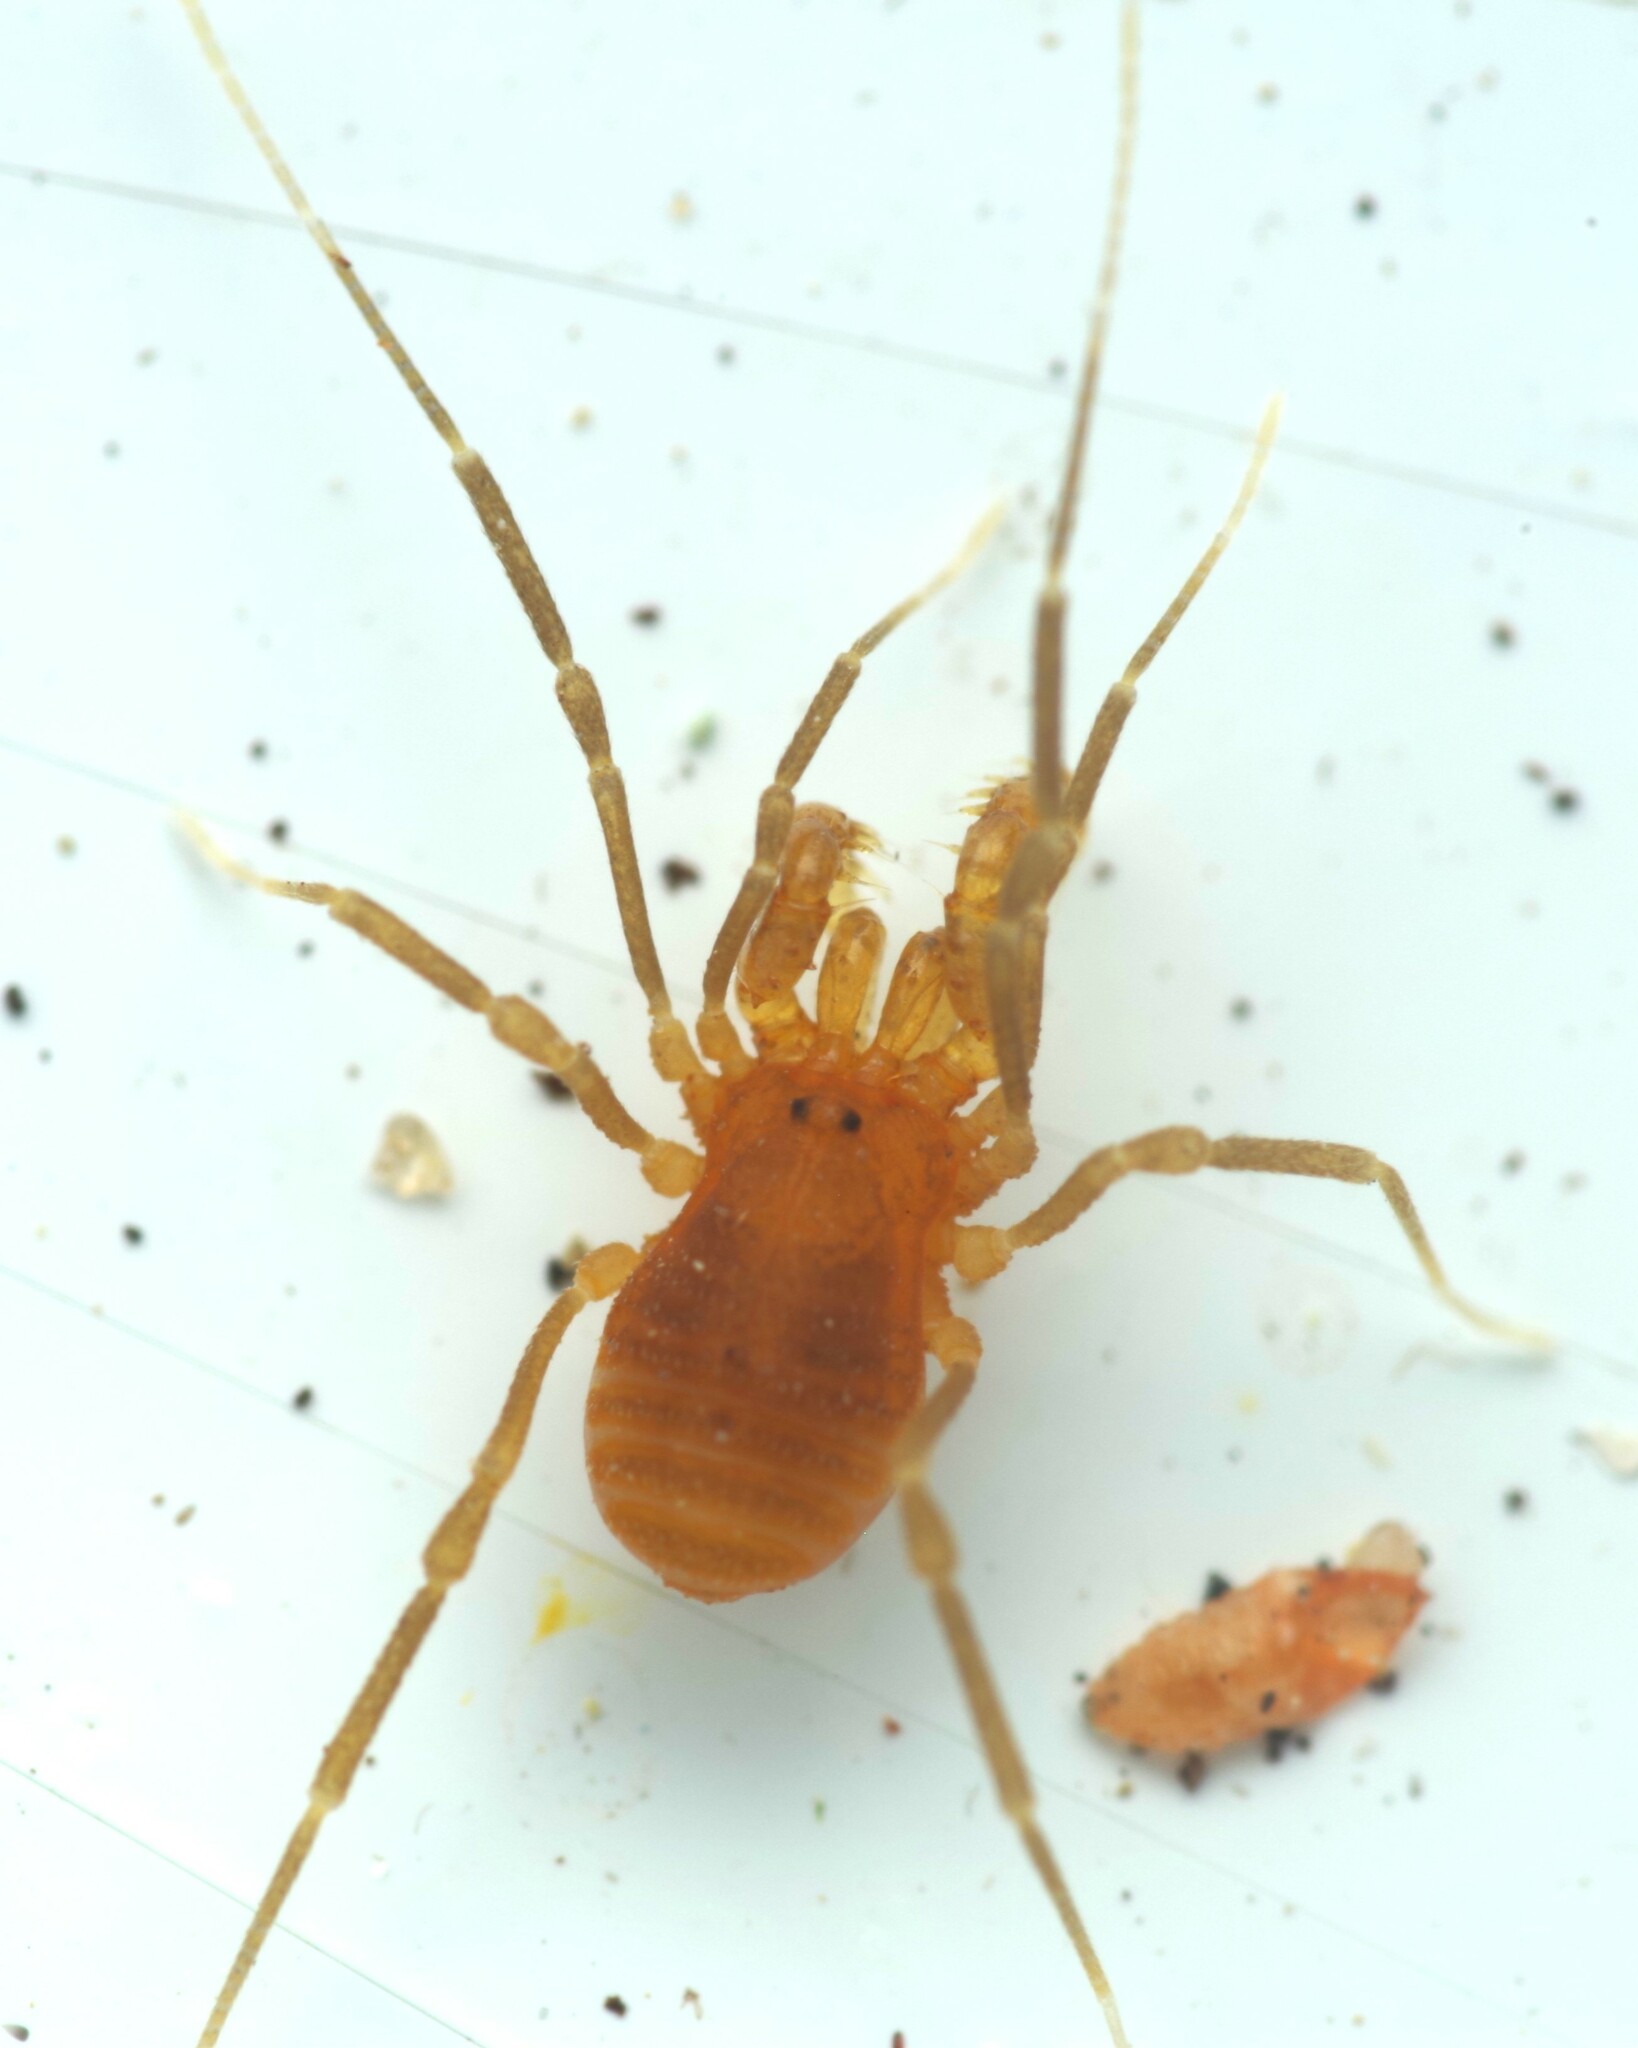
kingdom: Animalia
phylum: Arthropoda
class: Arachnida
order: Opiliones
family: Cladonychiidae
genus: Holoscotolemon
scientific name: Holoscotolemon querilhaci
